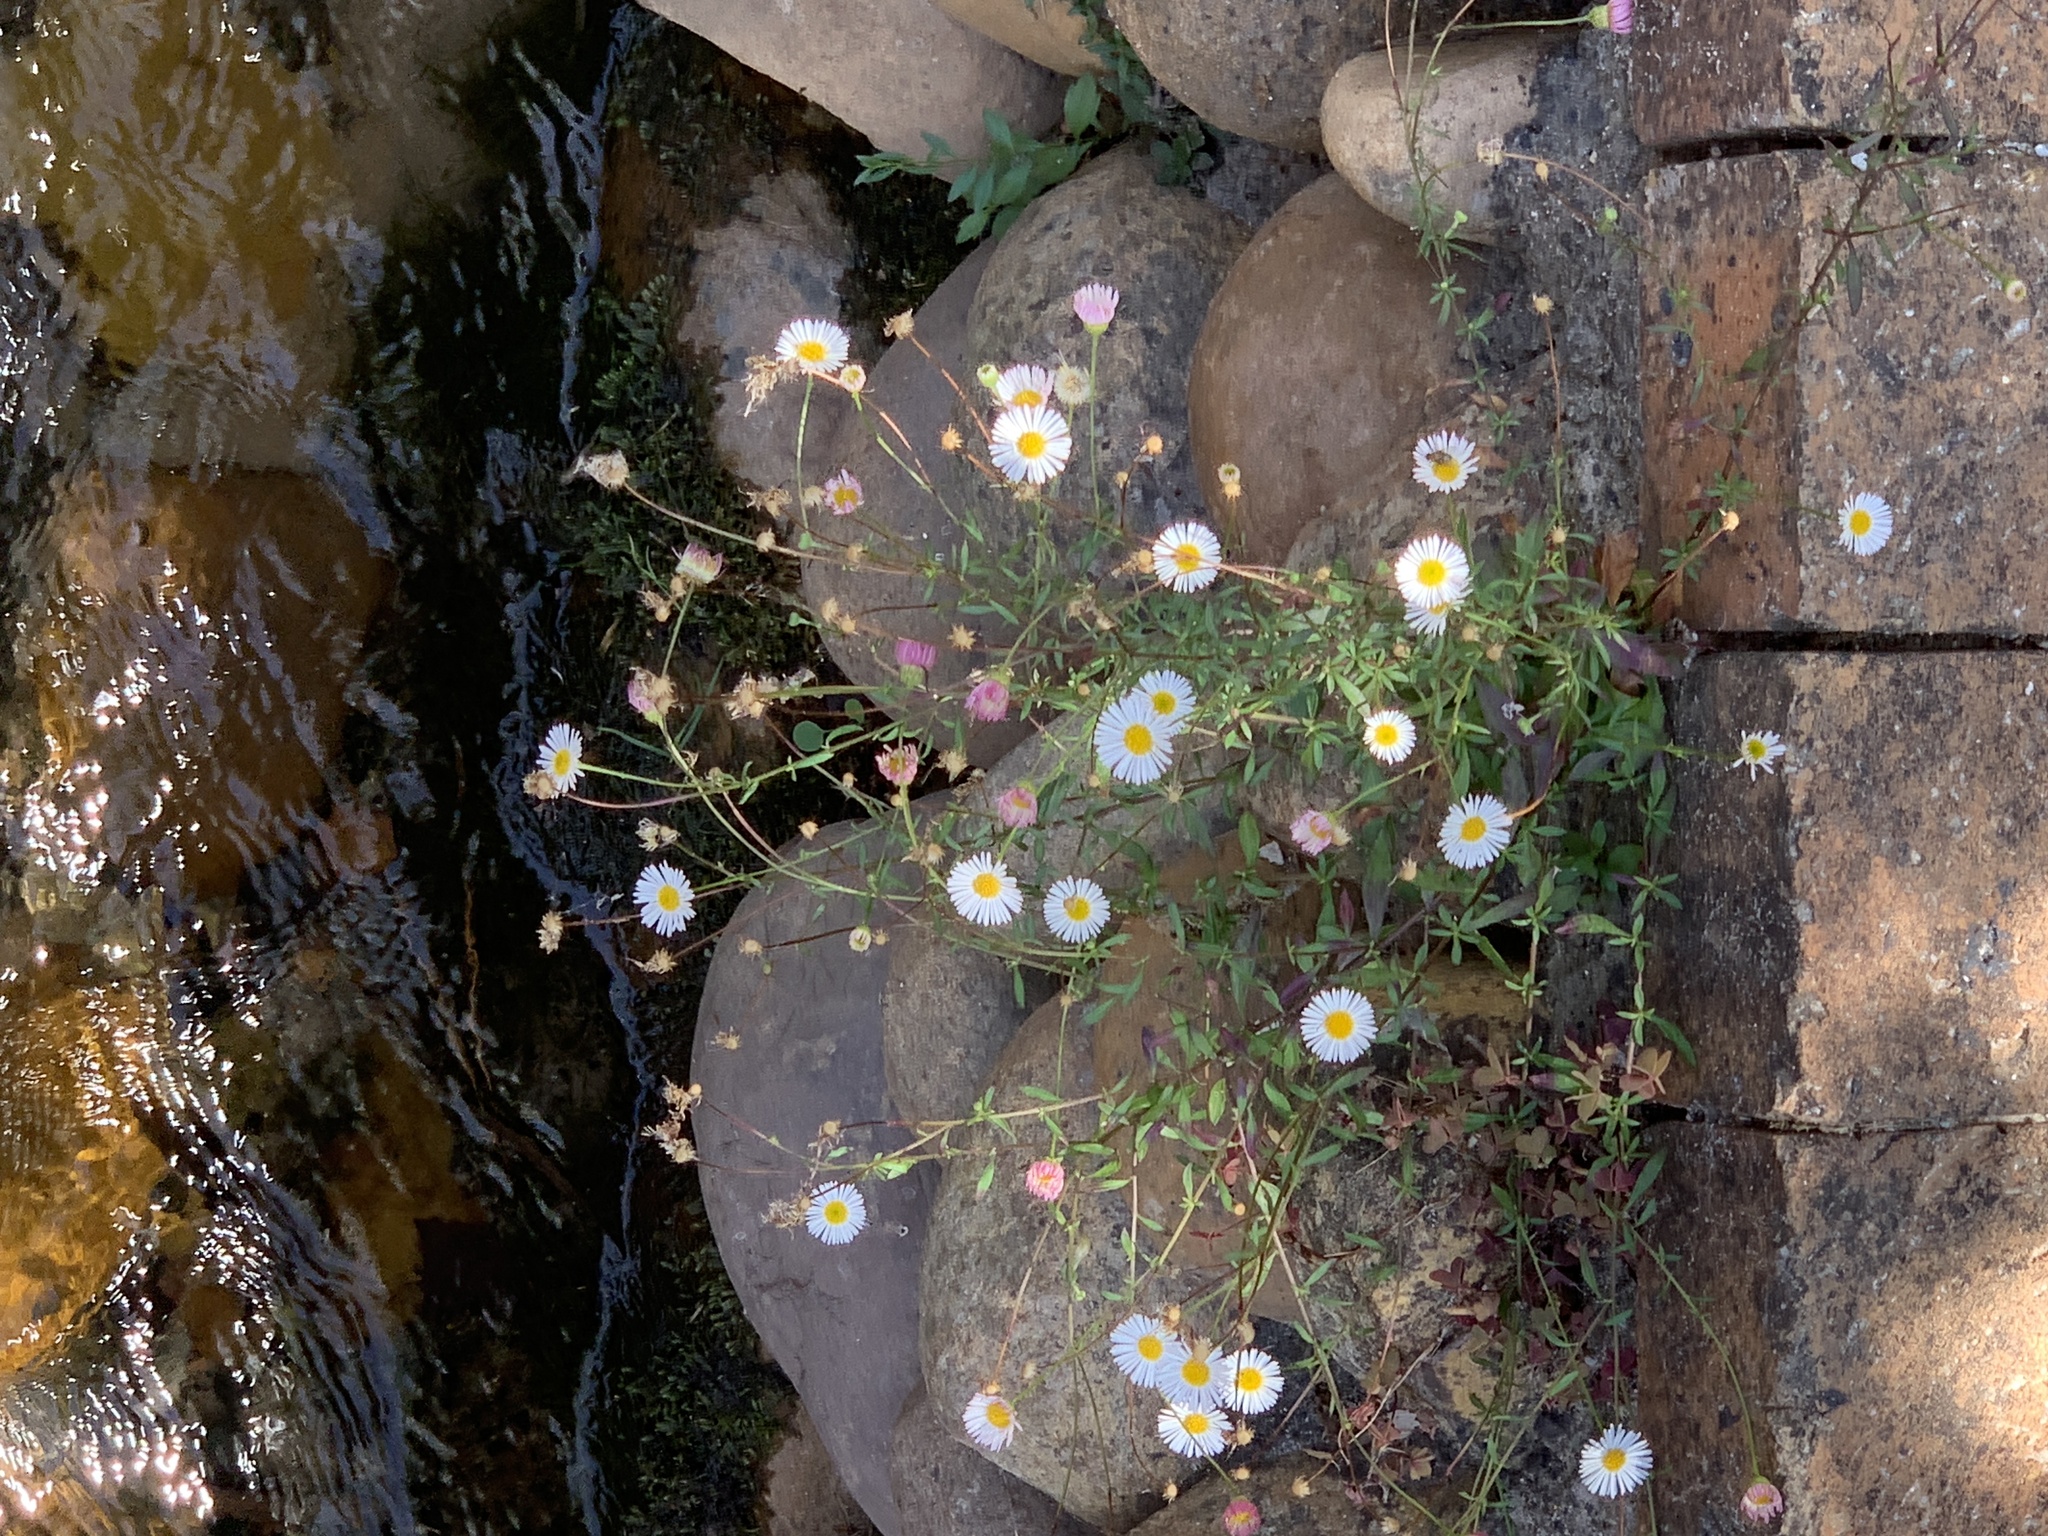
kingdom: Plantae
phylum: Tracheophyta
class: Magnoliopsida
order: Asterales
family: Asteraceae
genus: Erigeron
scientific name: Erigeron karvinskianus
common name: Mexican fleabane
